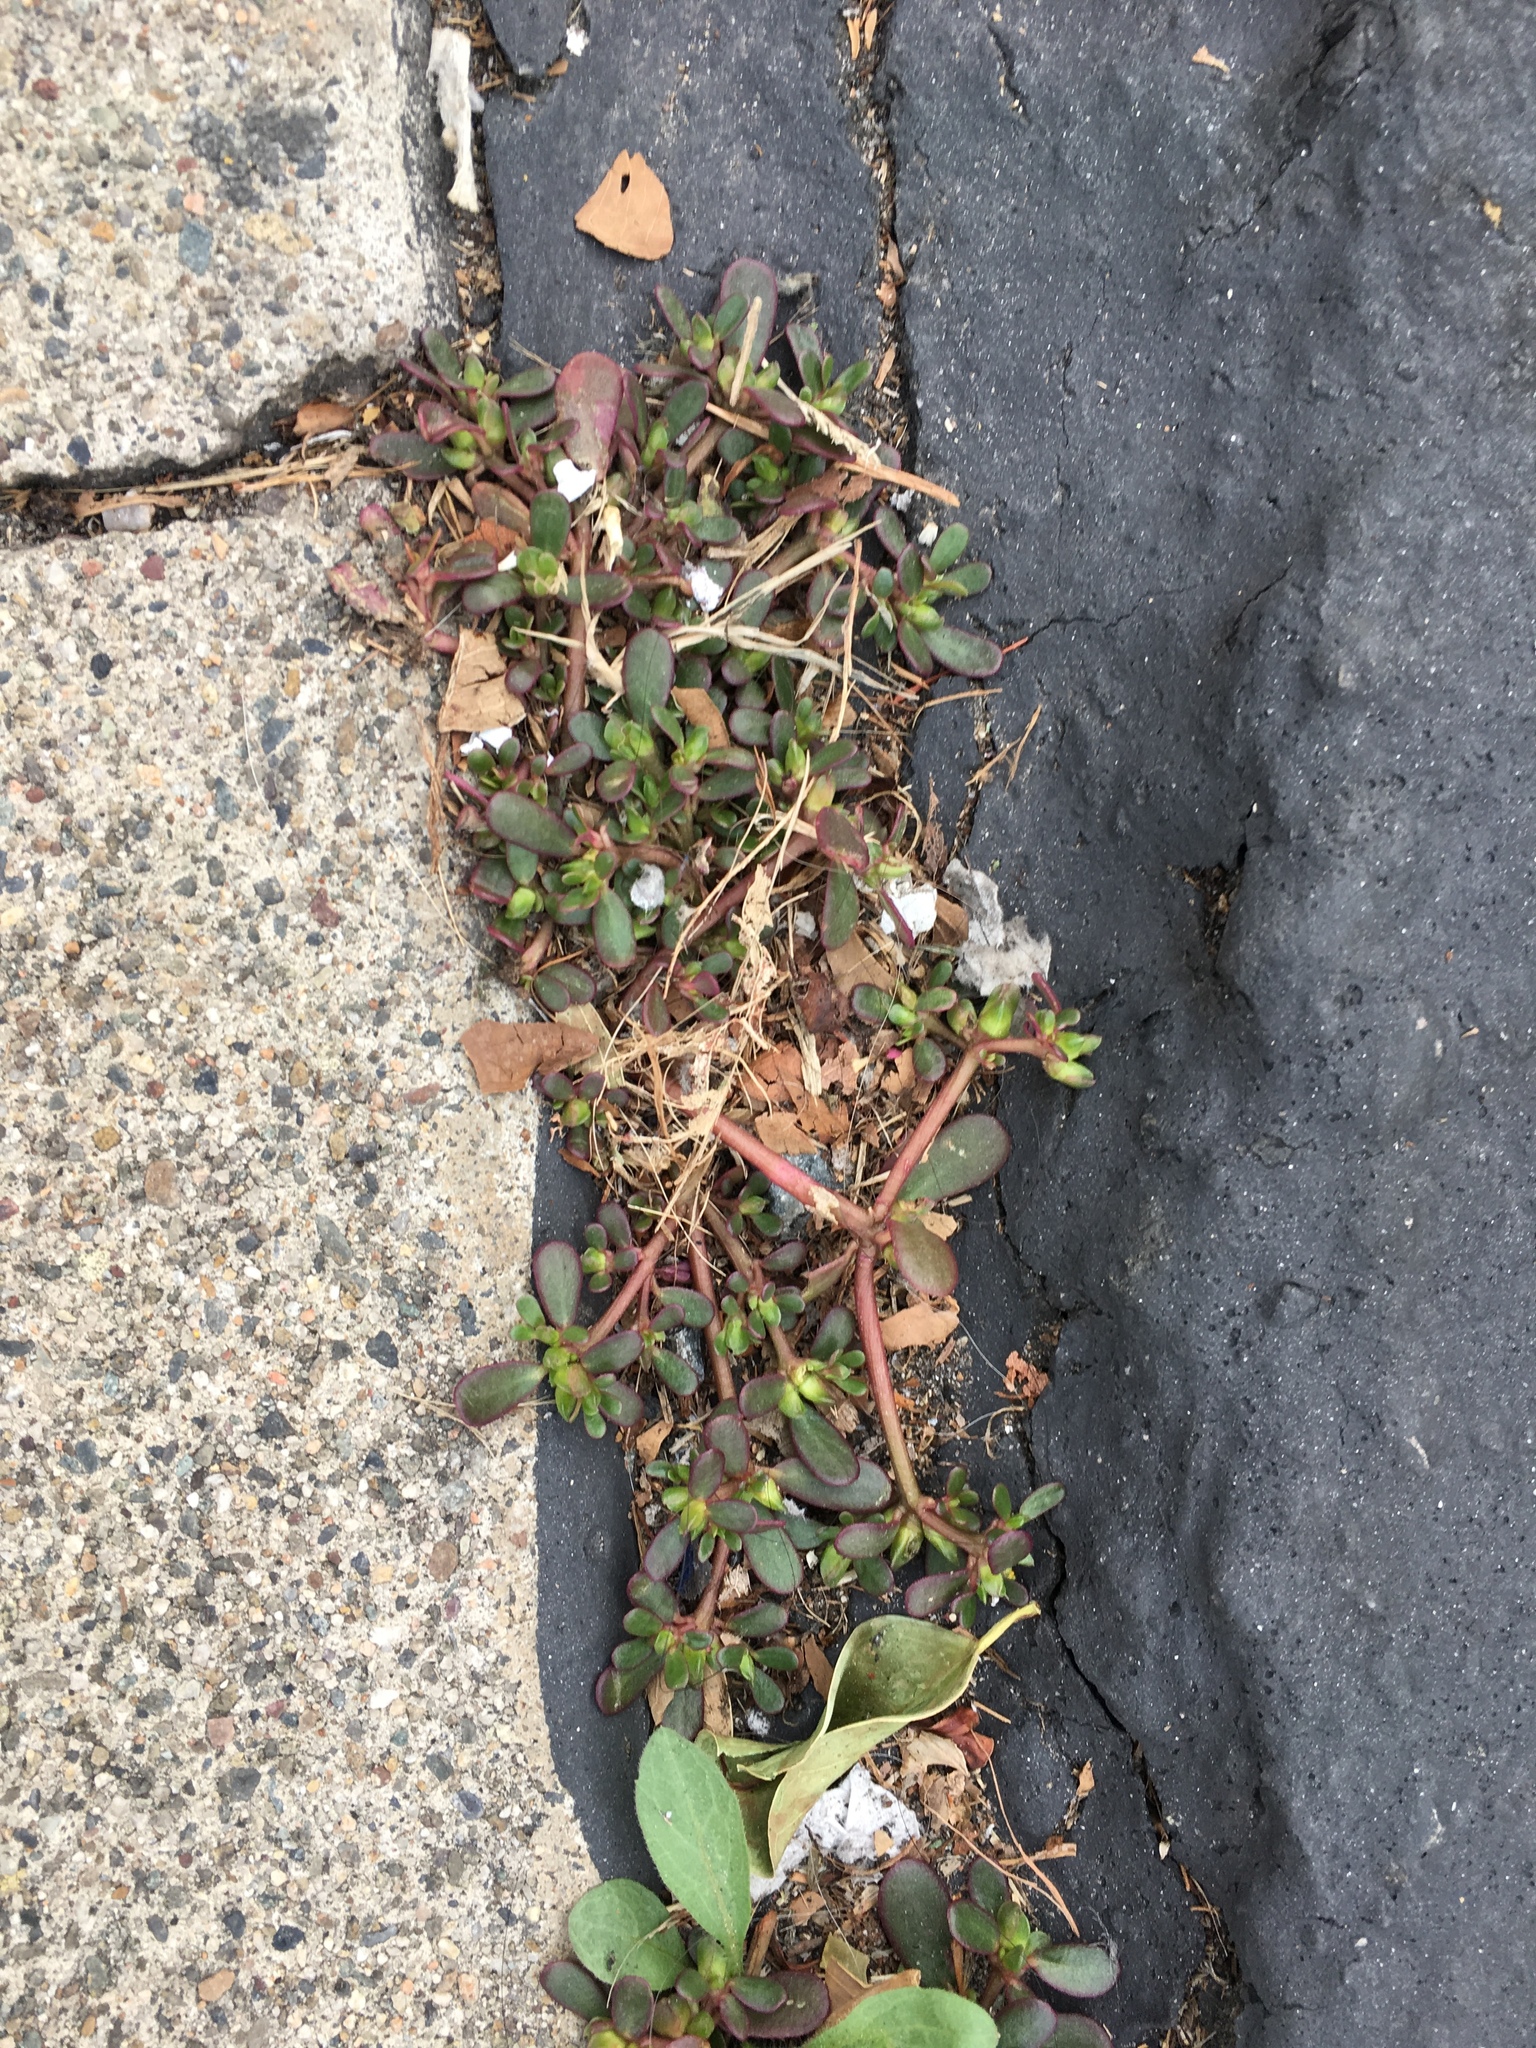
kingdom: Plantae
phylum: Tracheophyta
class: Magnoliopsida
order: Caryophyllales
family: Portulacaceae
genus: Portulaca
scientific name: Portulaca oleracea
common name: Common purslane
